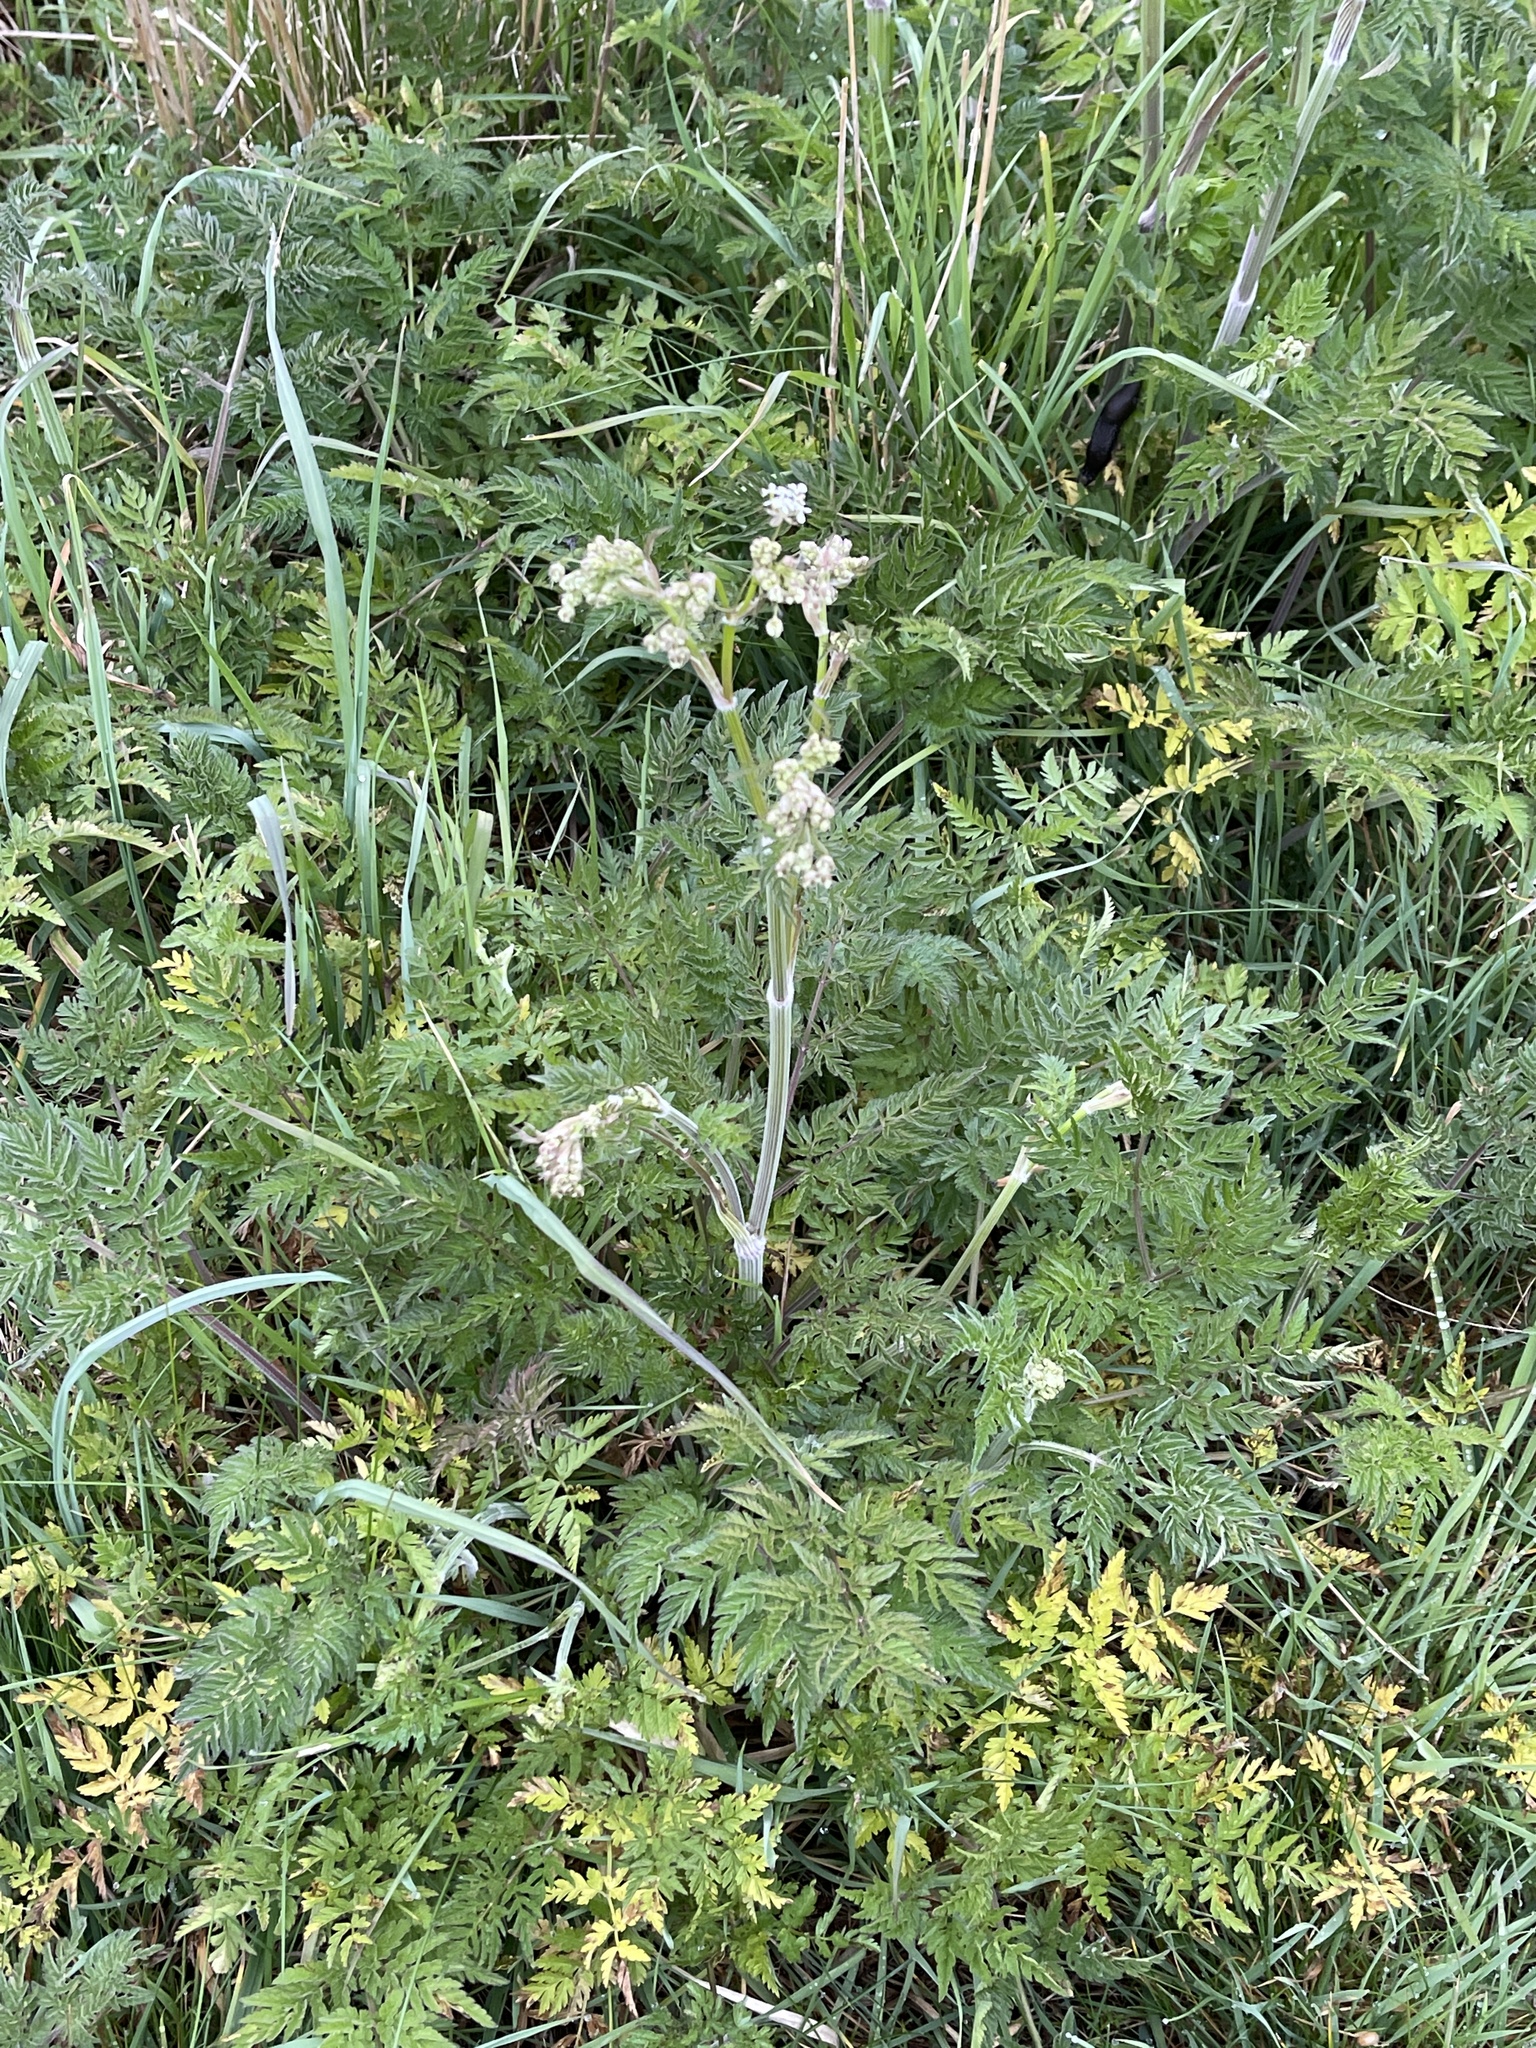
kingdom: Plantae
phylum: Tracheophyta
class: Magnoliopsida
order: Apiales
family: Apiaceae
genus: Anthriscus
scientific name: Anthriscus sylvestris
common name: Cow parsley
